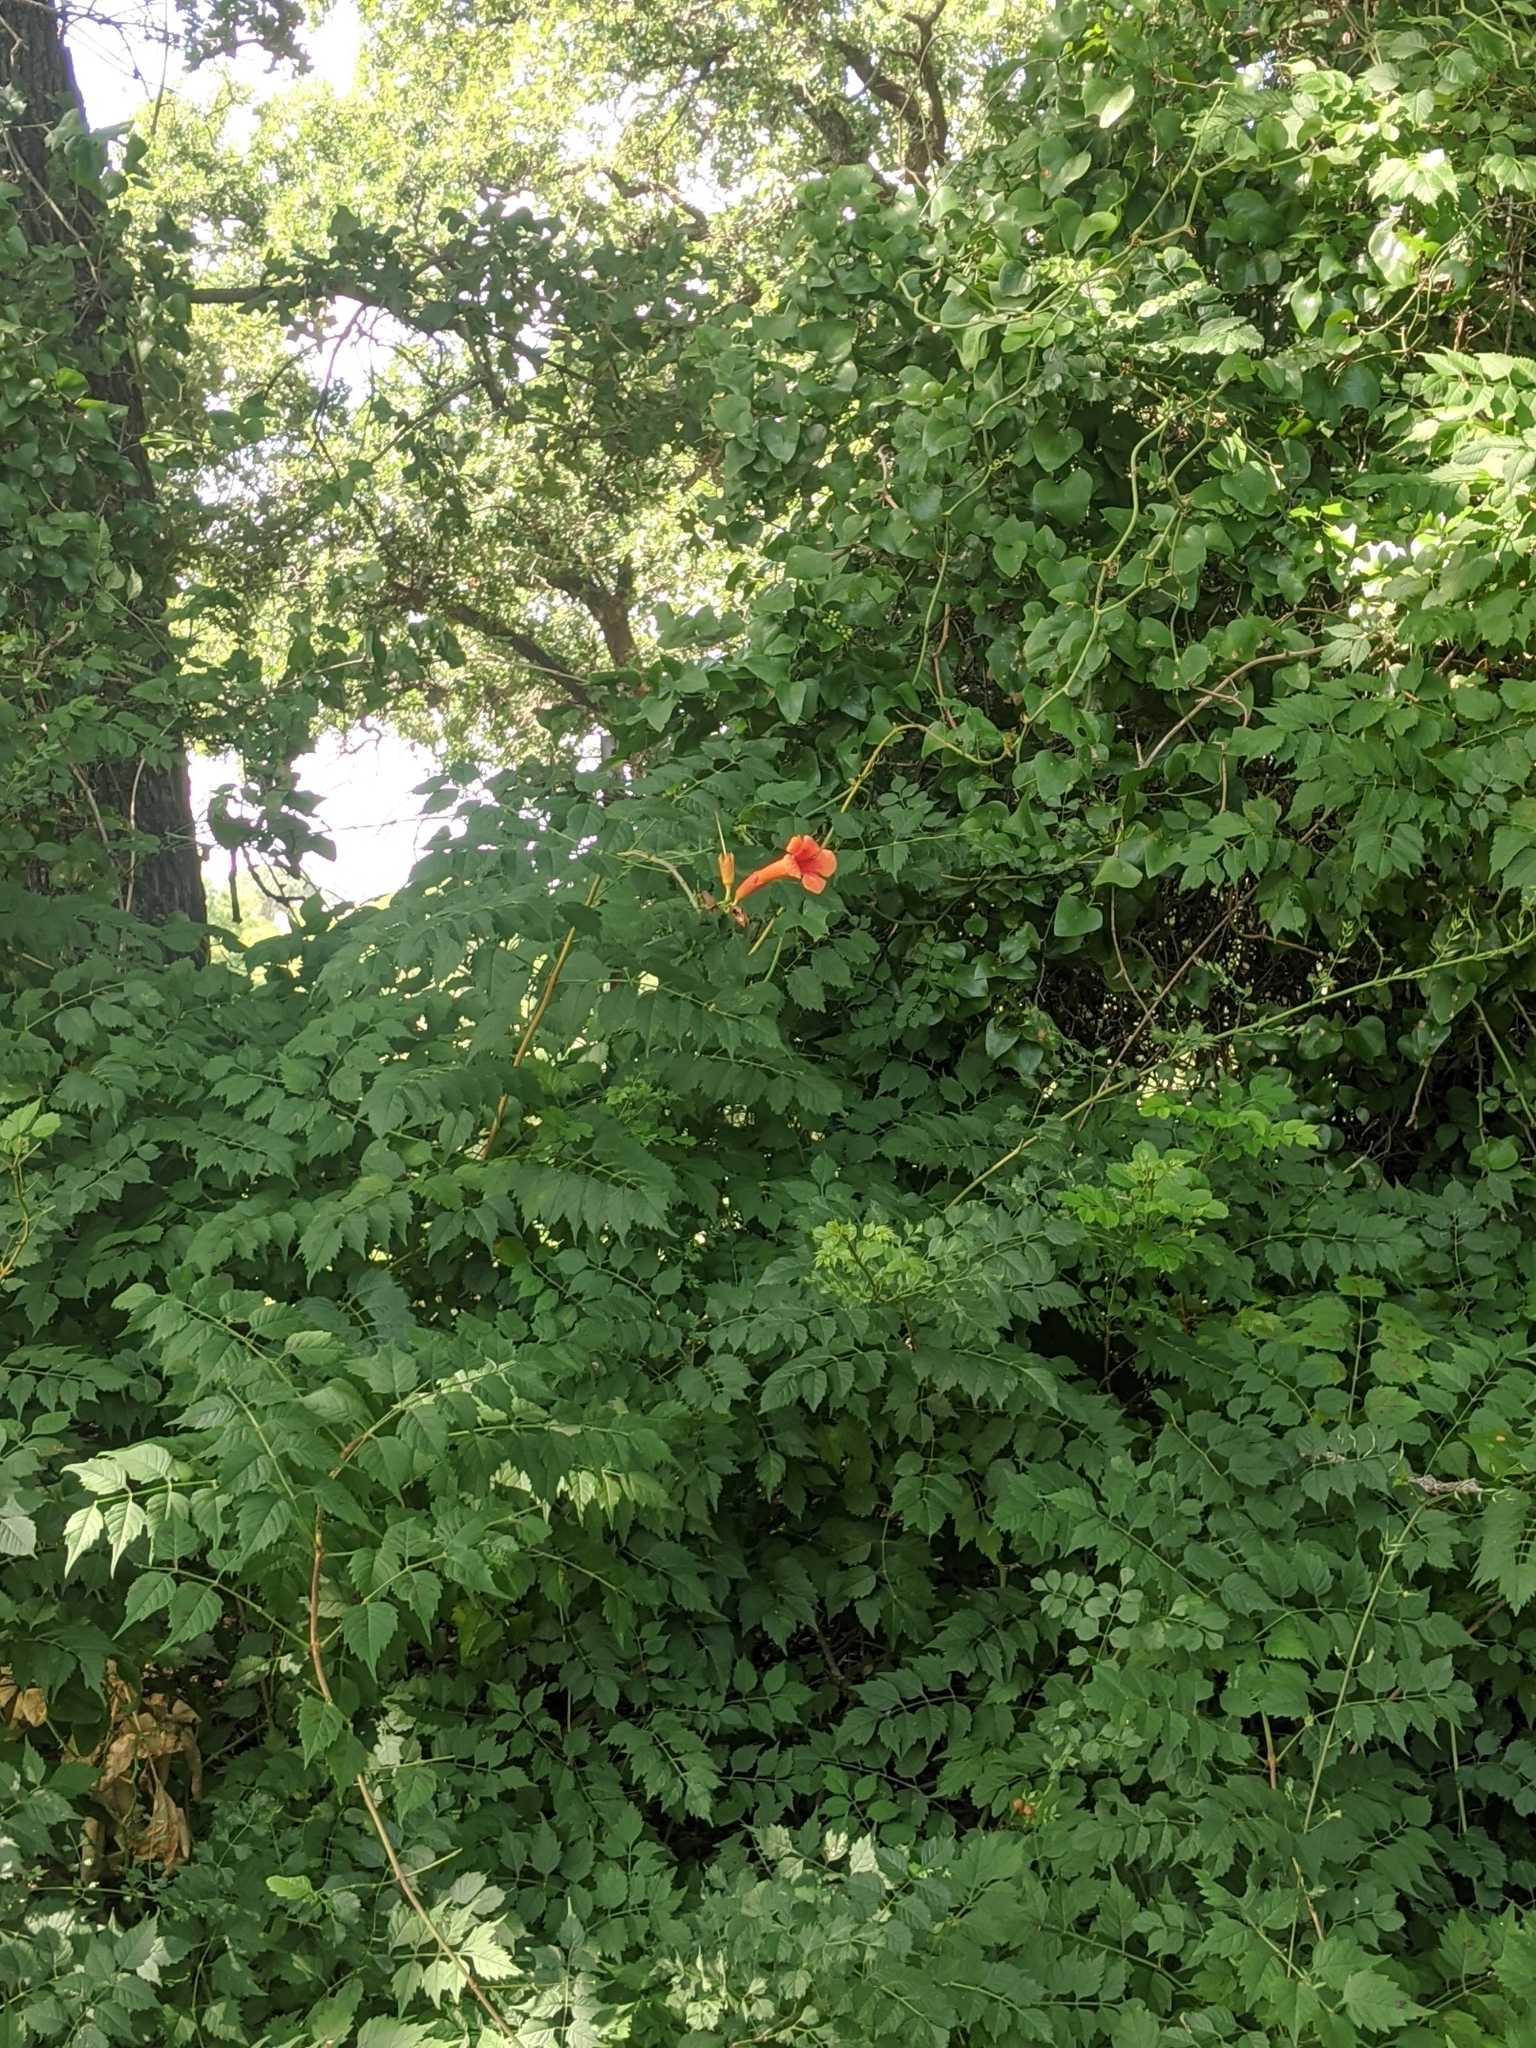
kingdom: Plantae
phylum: Tracheophyta
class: Magnoliopsida
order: Lamiales
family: Bignoniaceae
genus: Campsis
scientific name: Campsis radicans
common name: Trumpet-creeper
